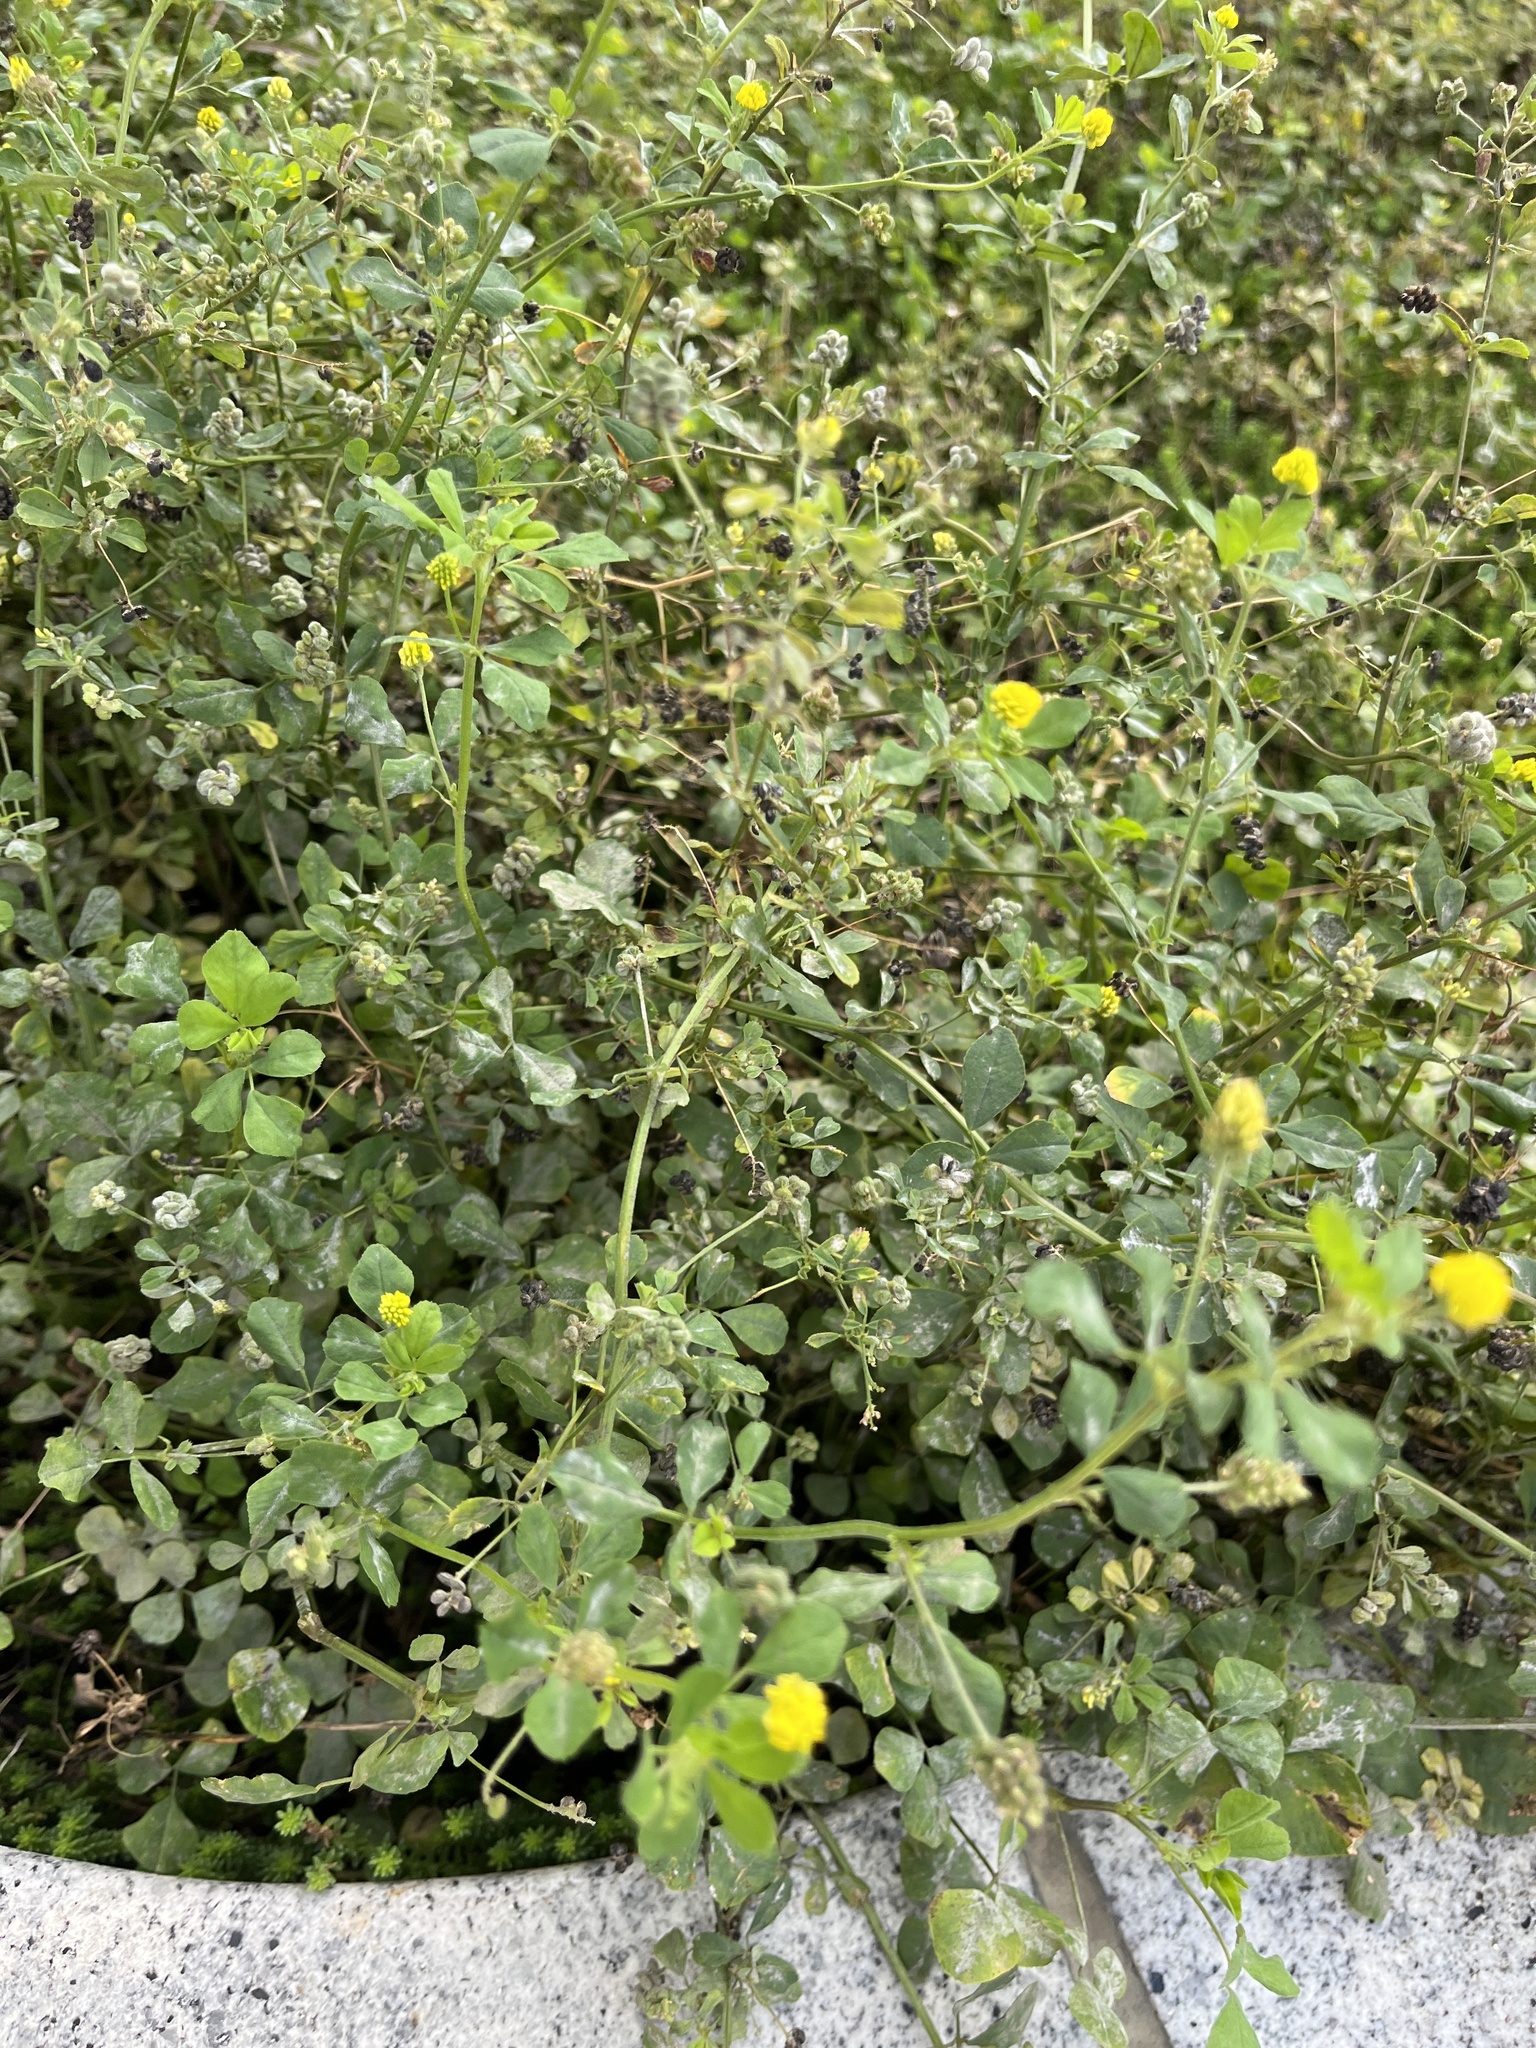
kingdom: Plantae
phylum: Tracheophyta
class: Magnoliopsida
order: Fabales
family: Fabaceae
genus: Medicago
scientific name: Medicago lupulina
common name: Black medick
